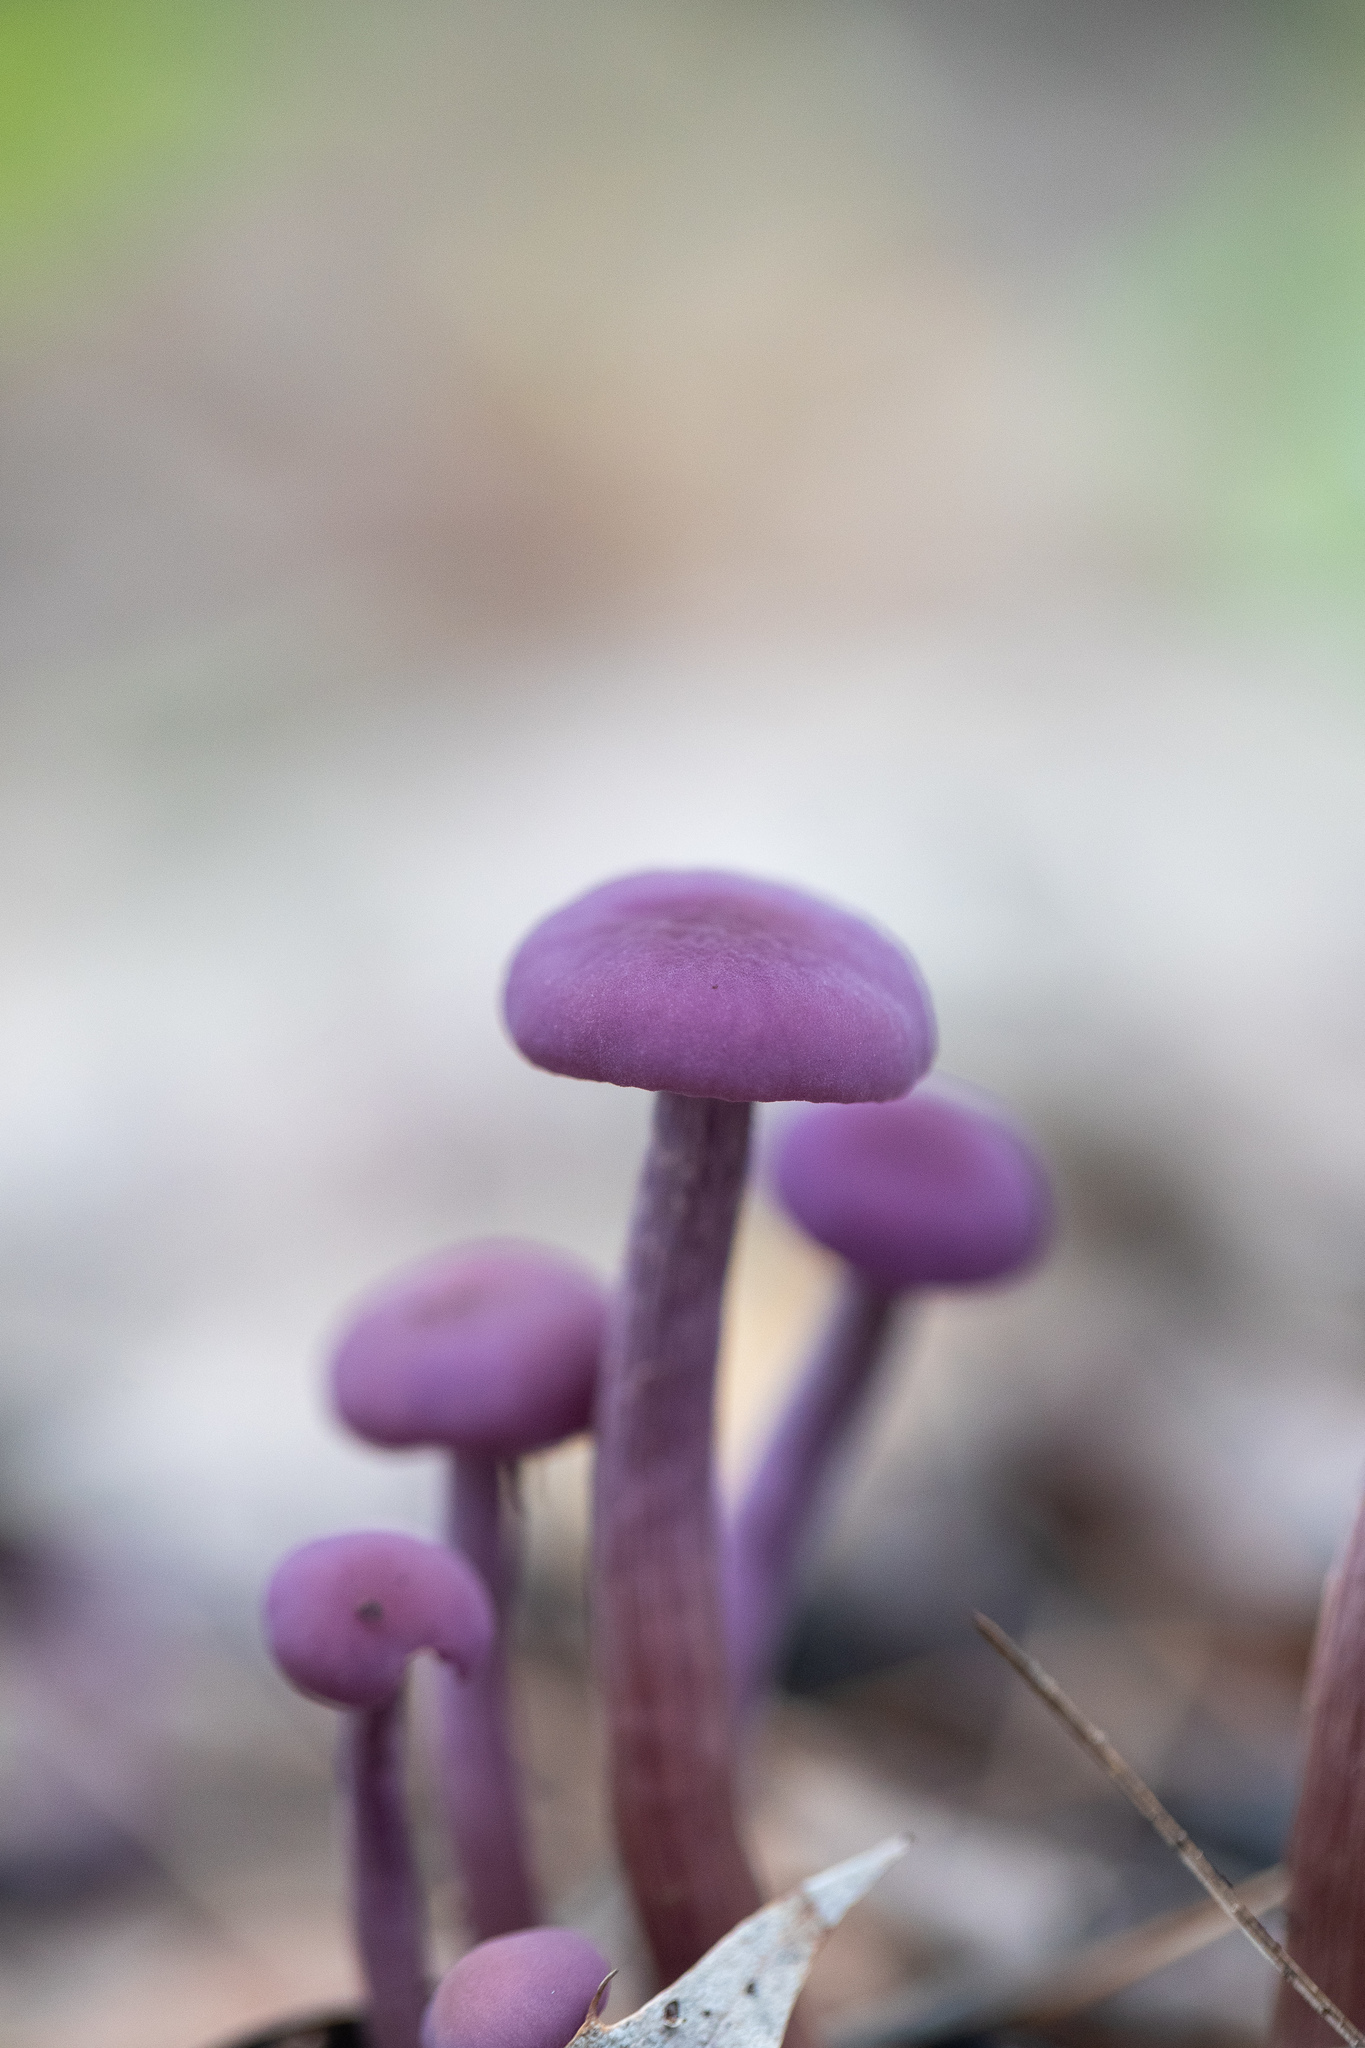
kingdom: Fungi
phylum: Basidiomycota
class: Agaricomycetes
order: Agaricales
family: Hydnangiaceae
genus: Laccaria
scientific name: Laccaria amethystina
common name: Amethyst deceiver
